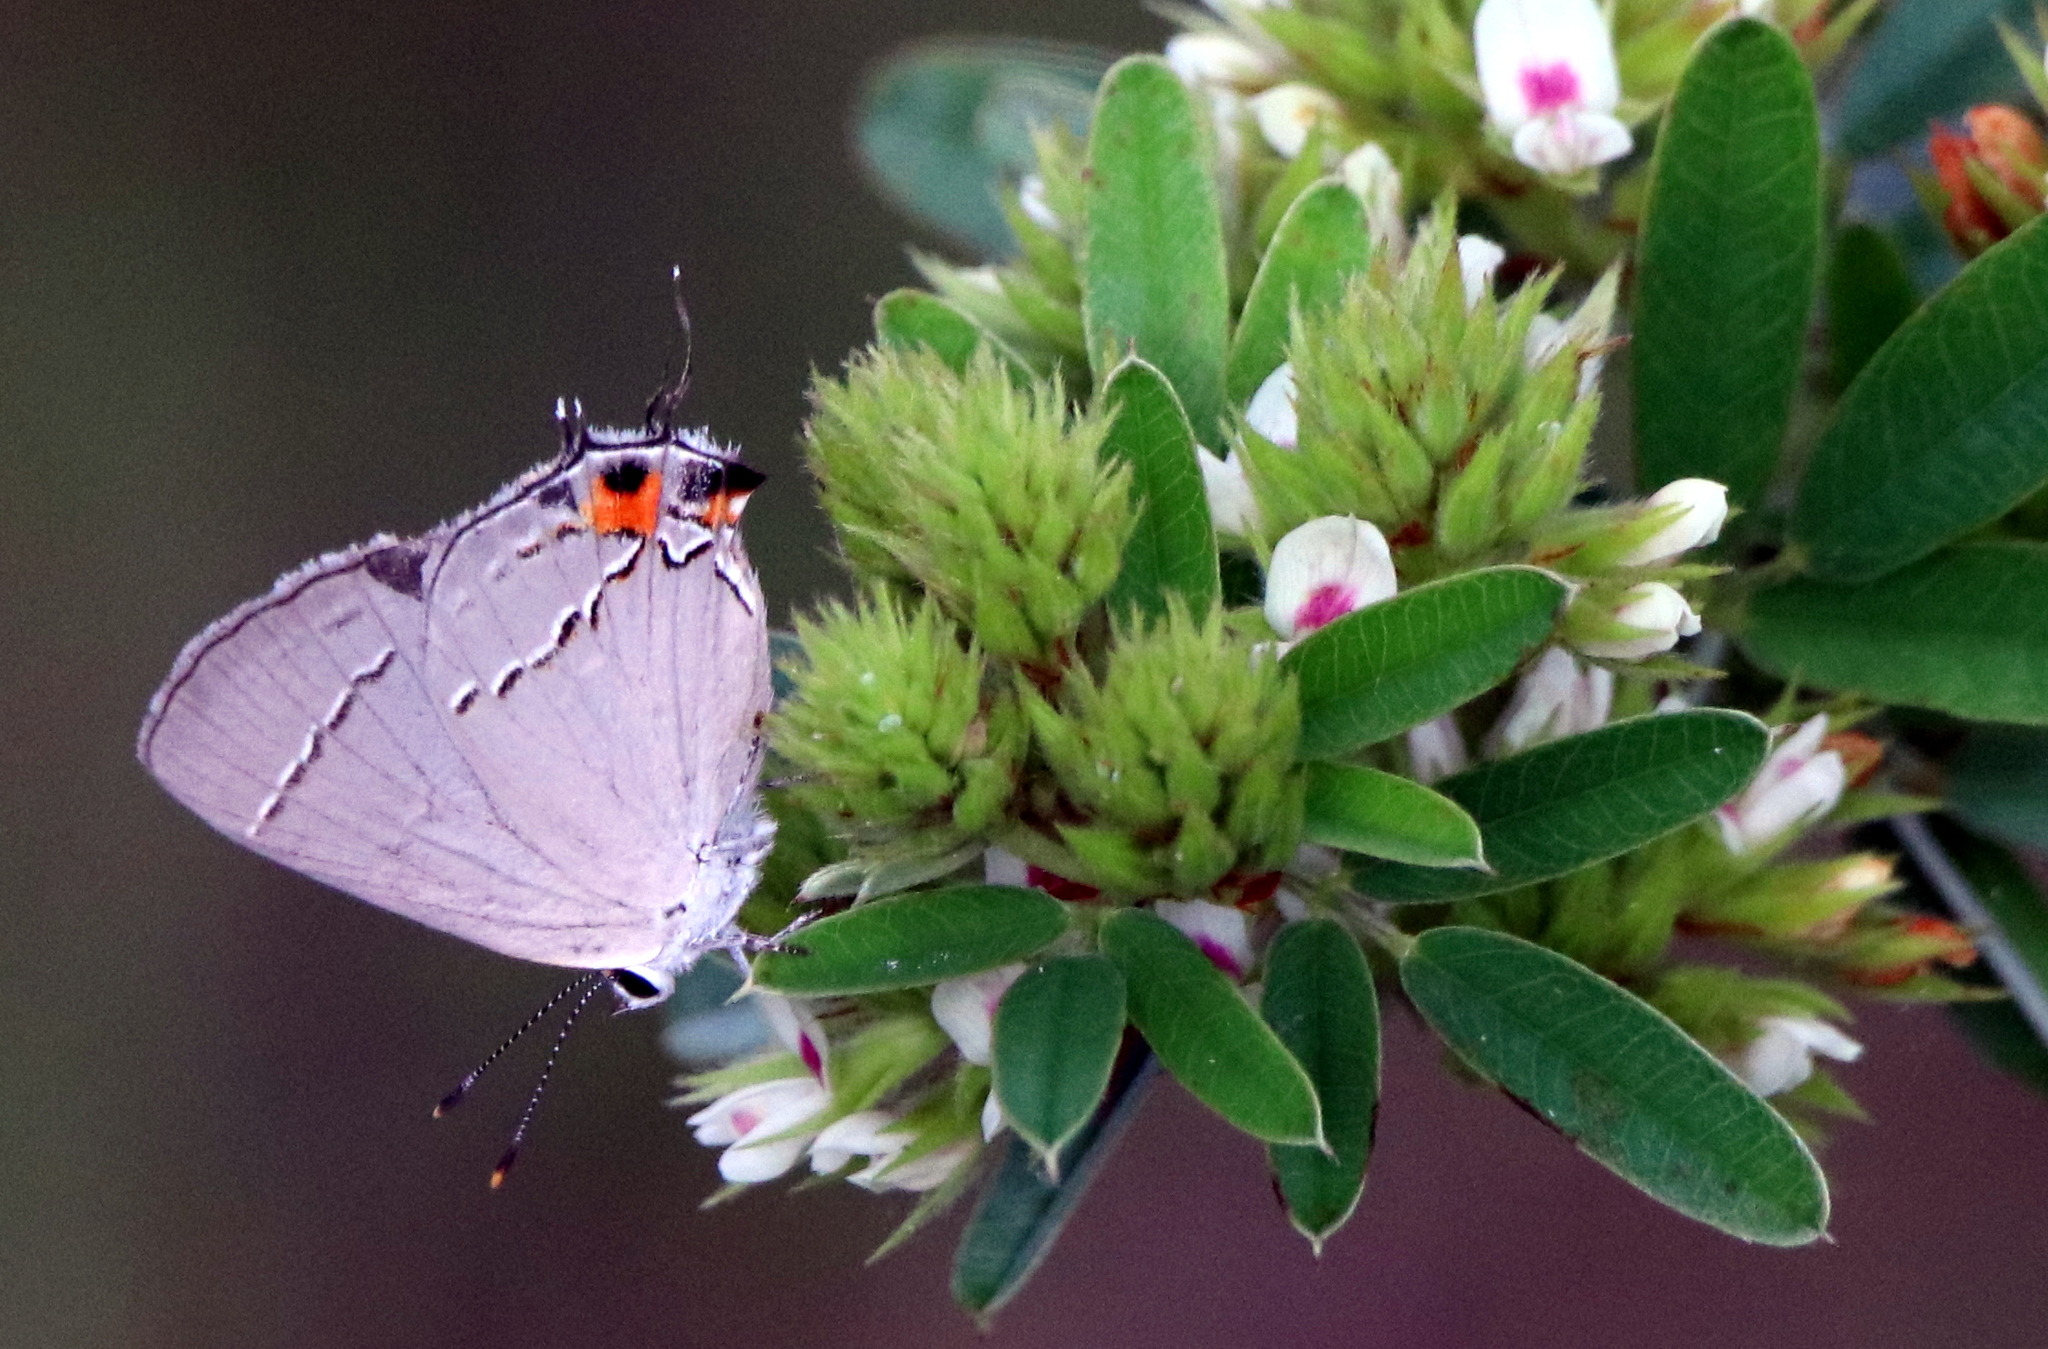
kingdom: Animalia
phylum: Arthropoda
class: Insecta
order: Lepidoptera
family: Lycaenidae
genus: Strymon
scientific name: Strymon melinus
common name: Gray hairstreak
